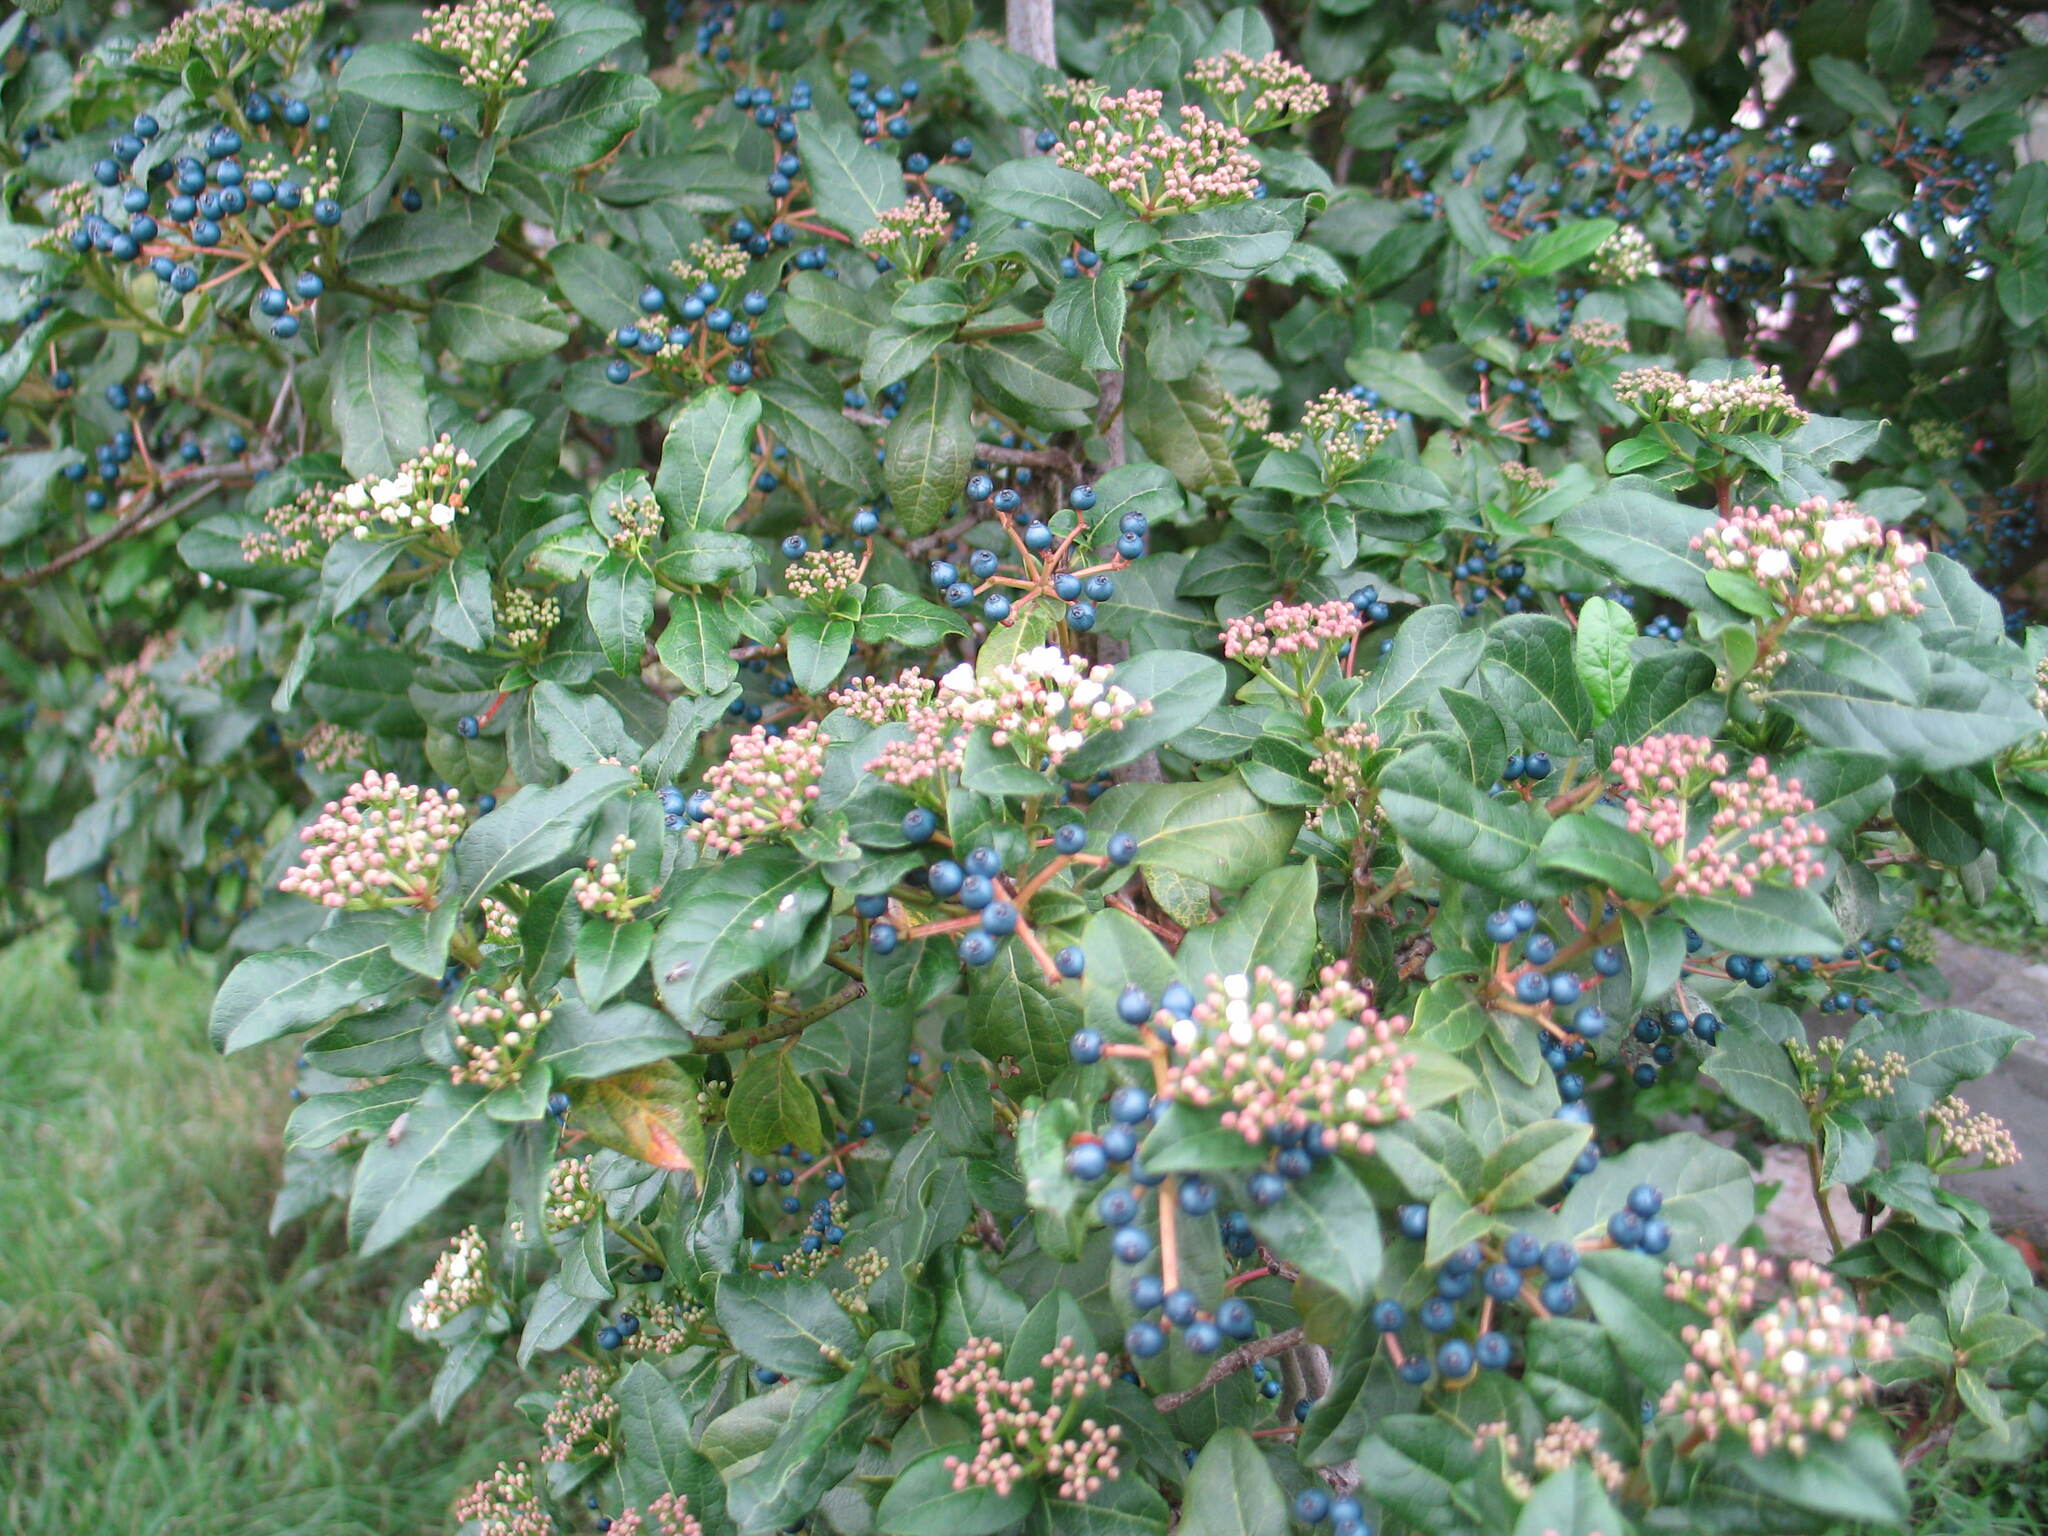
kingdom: Plantae
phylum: Tracheophyta
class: Magnoliopsida
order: Dipsacales
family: Viburnaceae
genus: Viburnum
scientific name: Viburnum tinus
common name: Laurustinus
